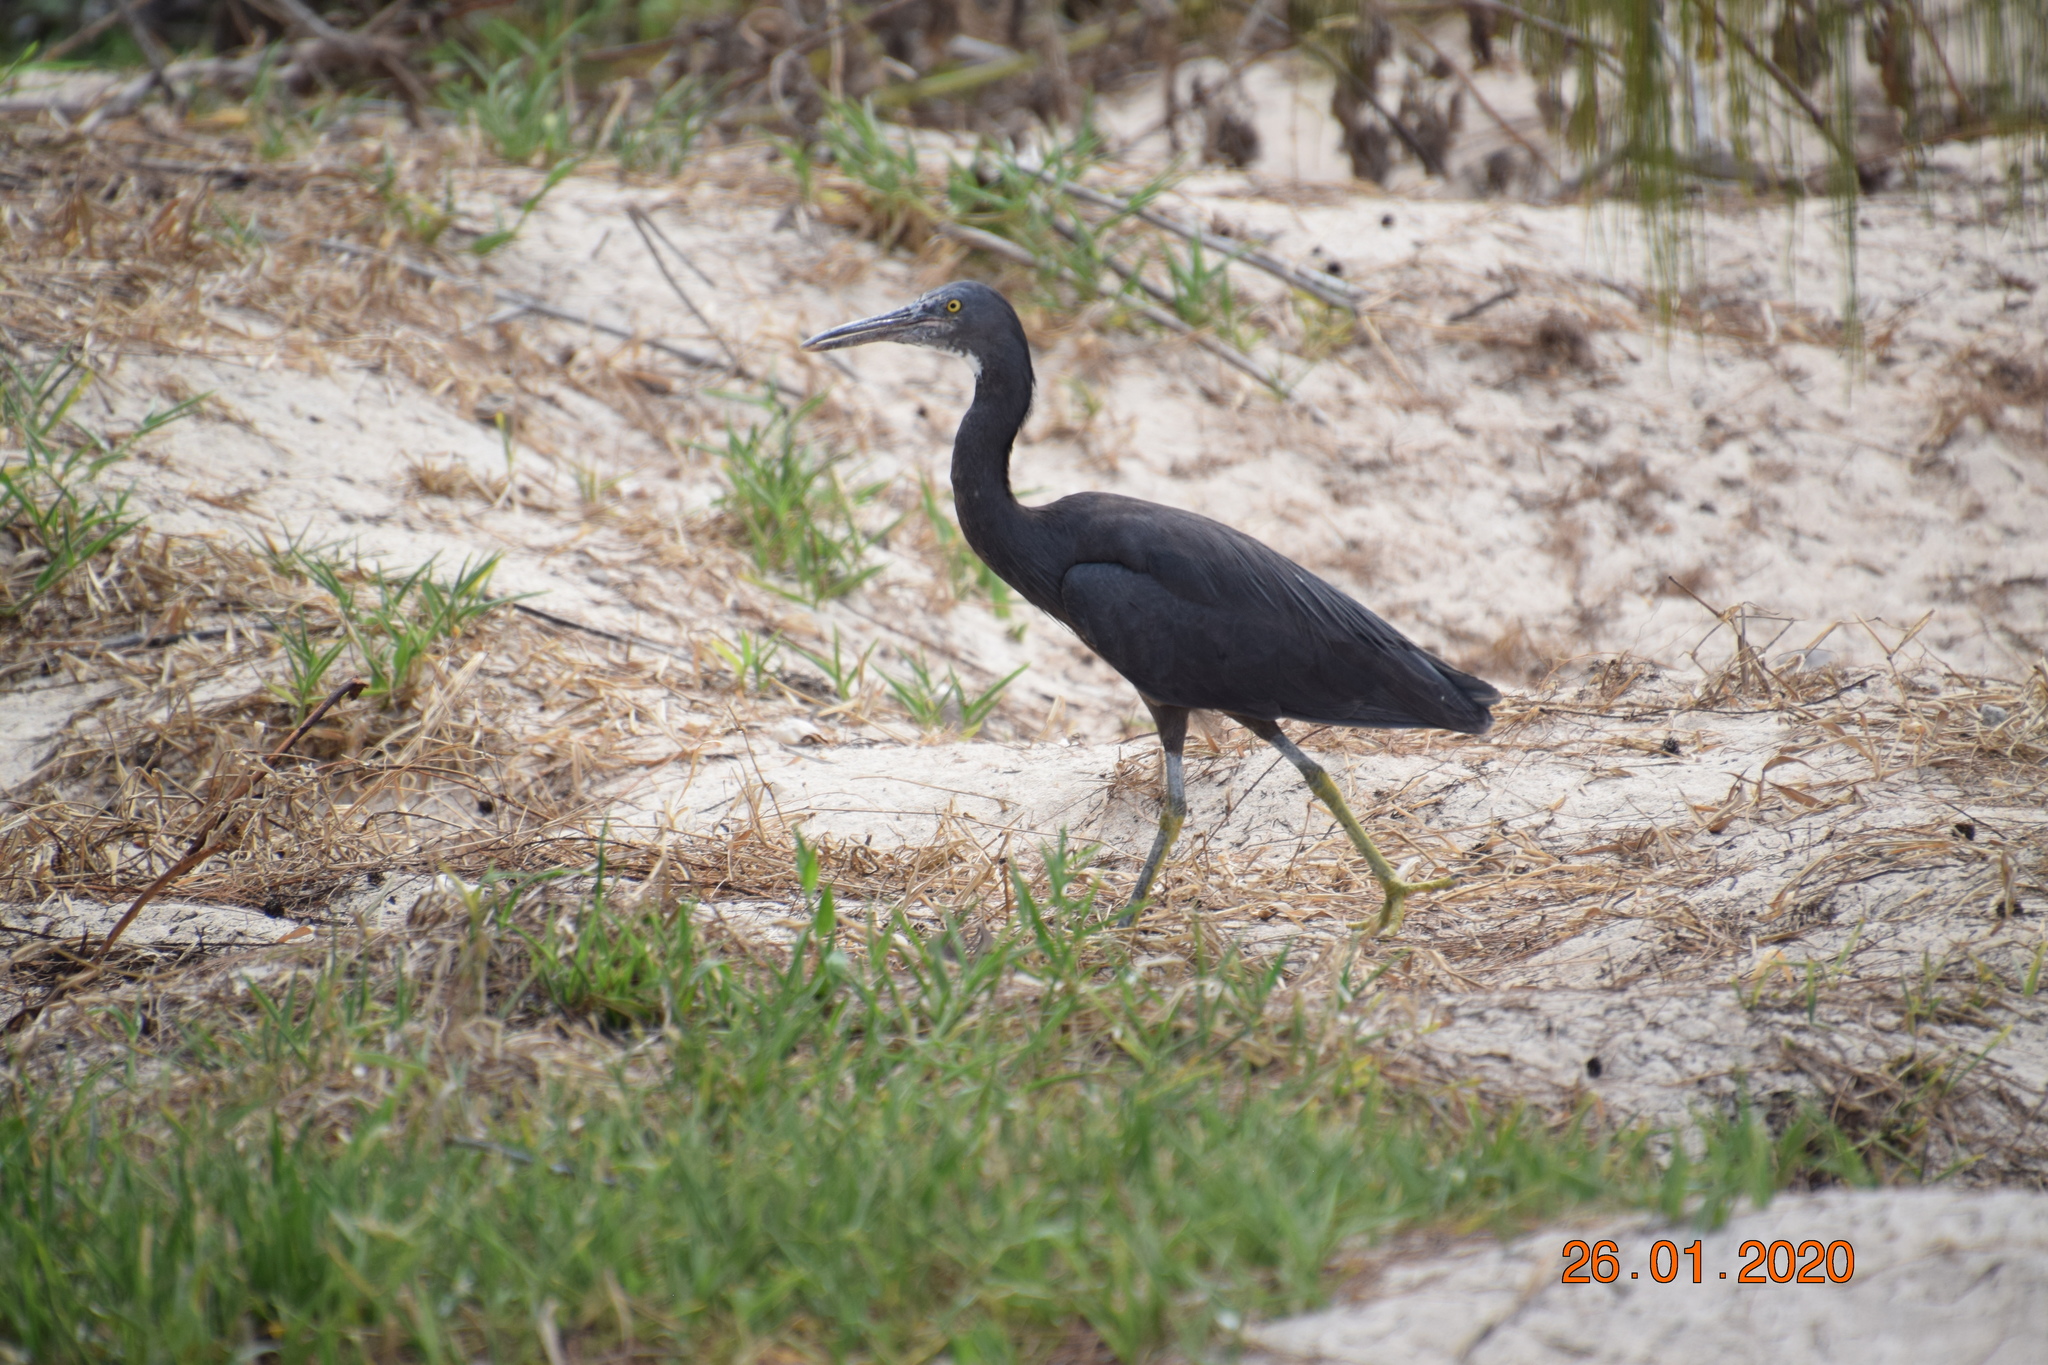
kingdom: Animalia
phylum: Chordata
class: Aves
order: Pelecaniformes
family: Ardeidae
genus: Egretta
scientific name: Egretta sacra
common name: Pacific reef heron
